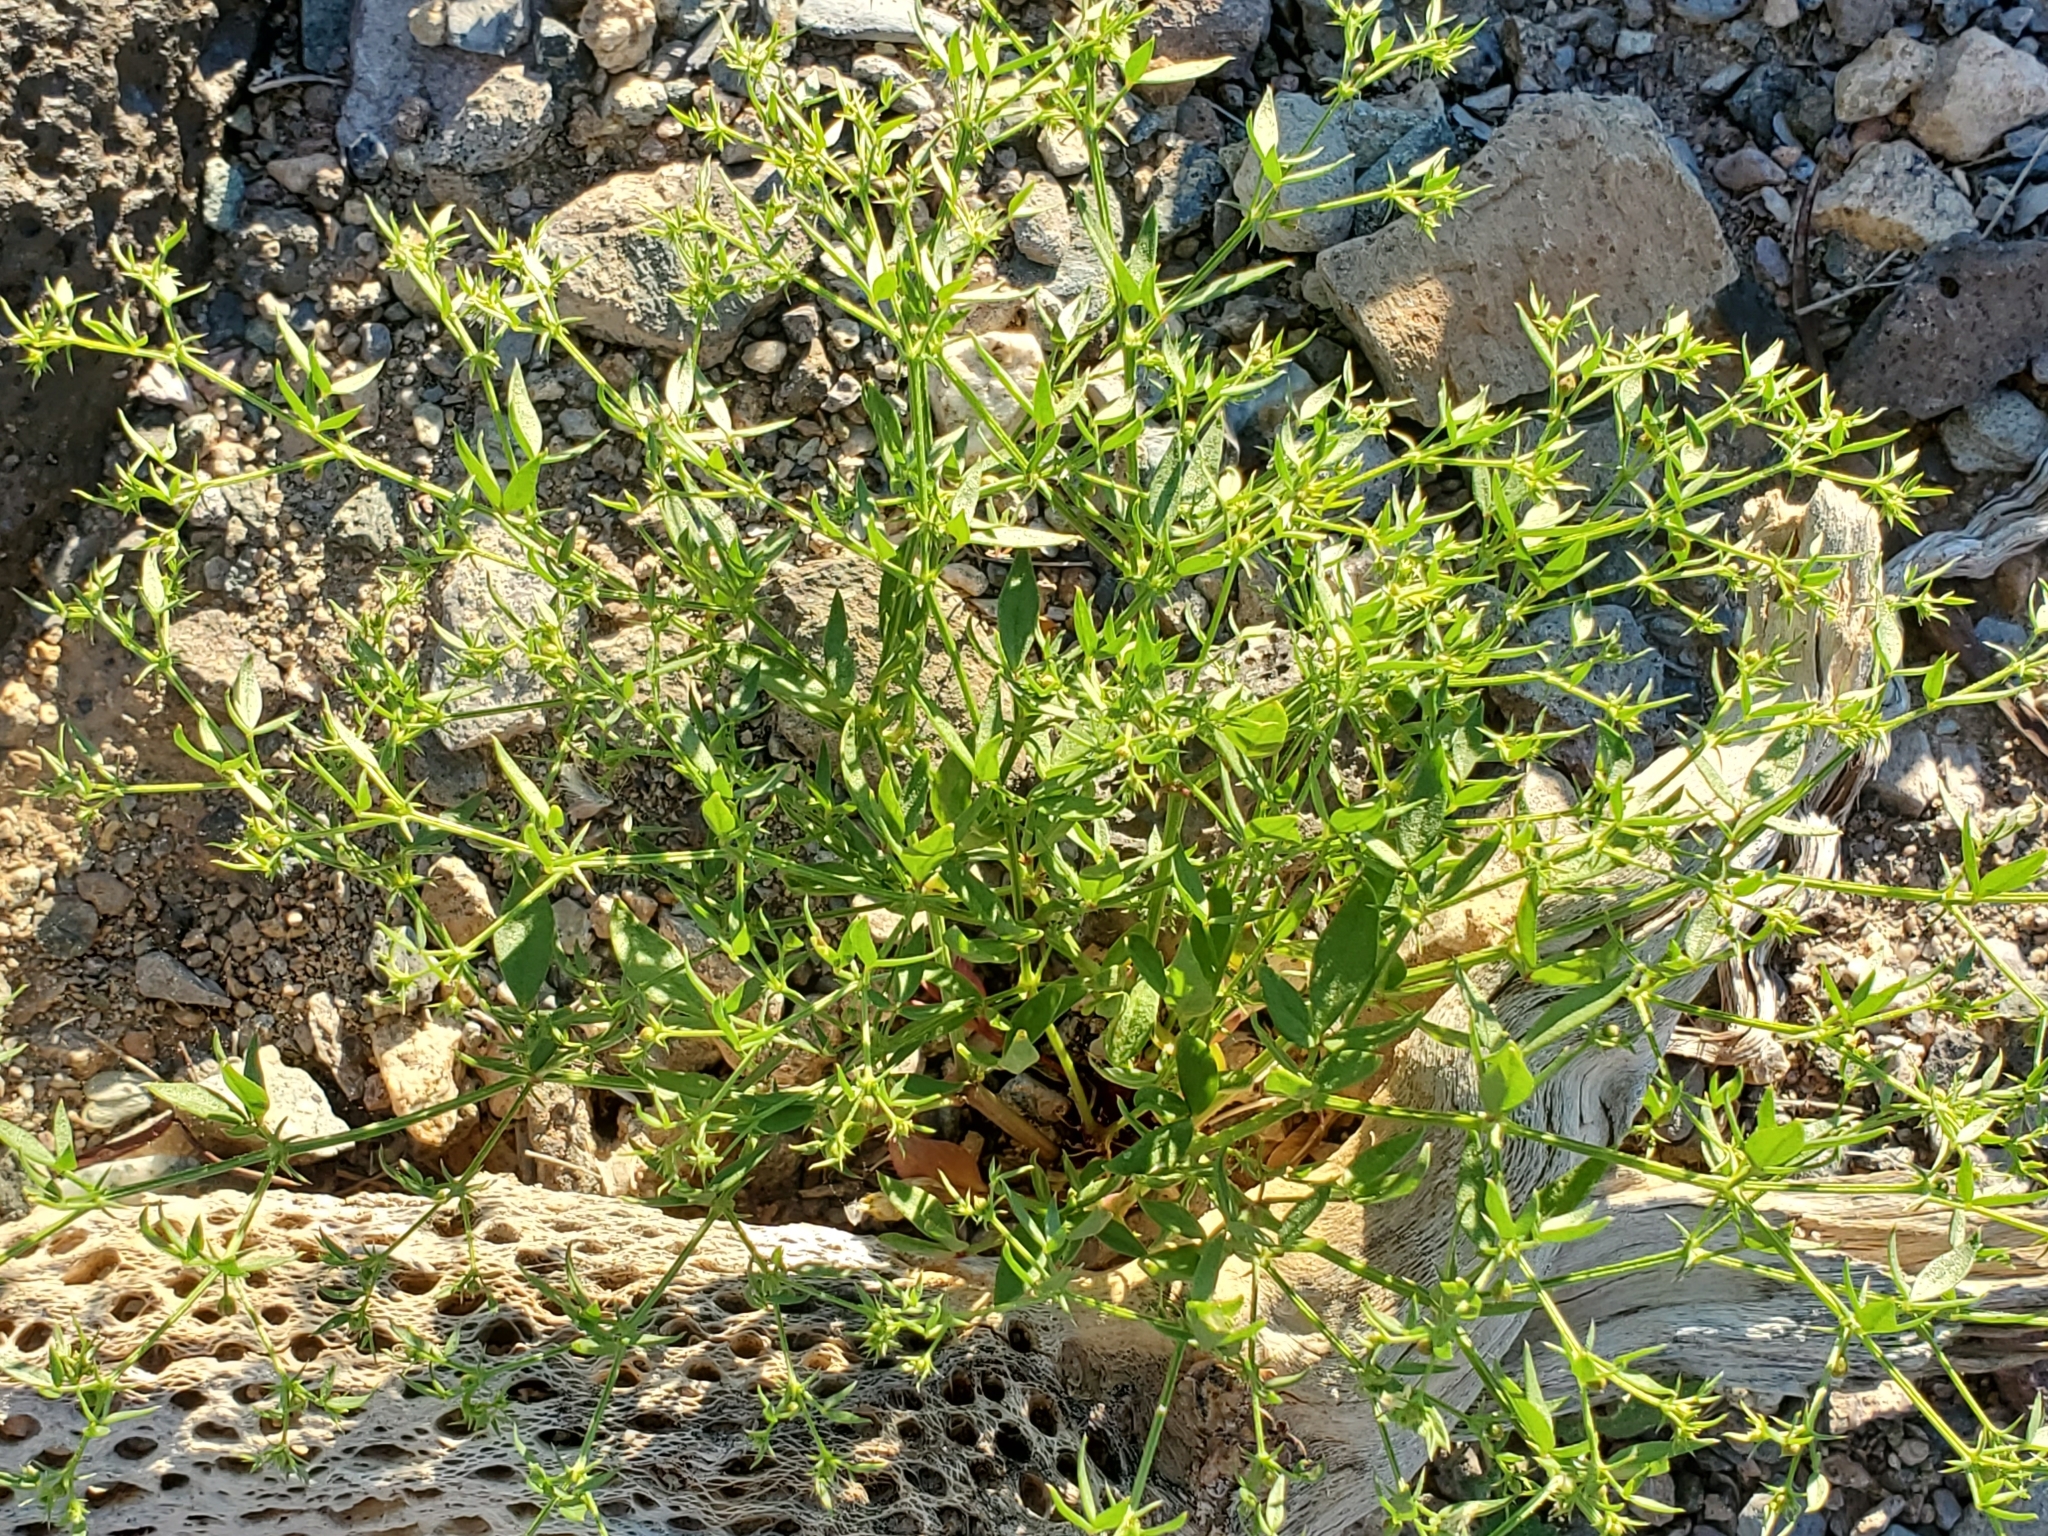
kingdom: Plantae
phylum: Tracheophyta
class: Magnoliopsida
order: Zygophyllales
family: Zygophyllaceae
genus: Fagonia
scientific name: Fagonia laevis
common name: California fagonbush
